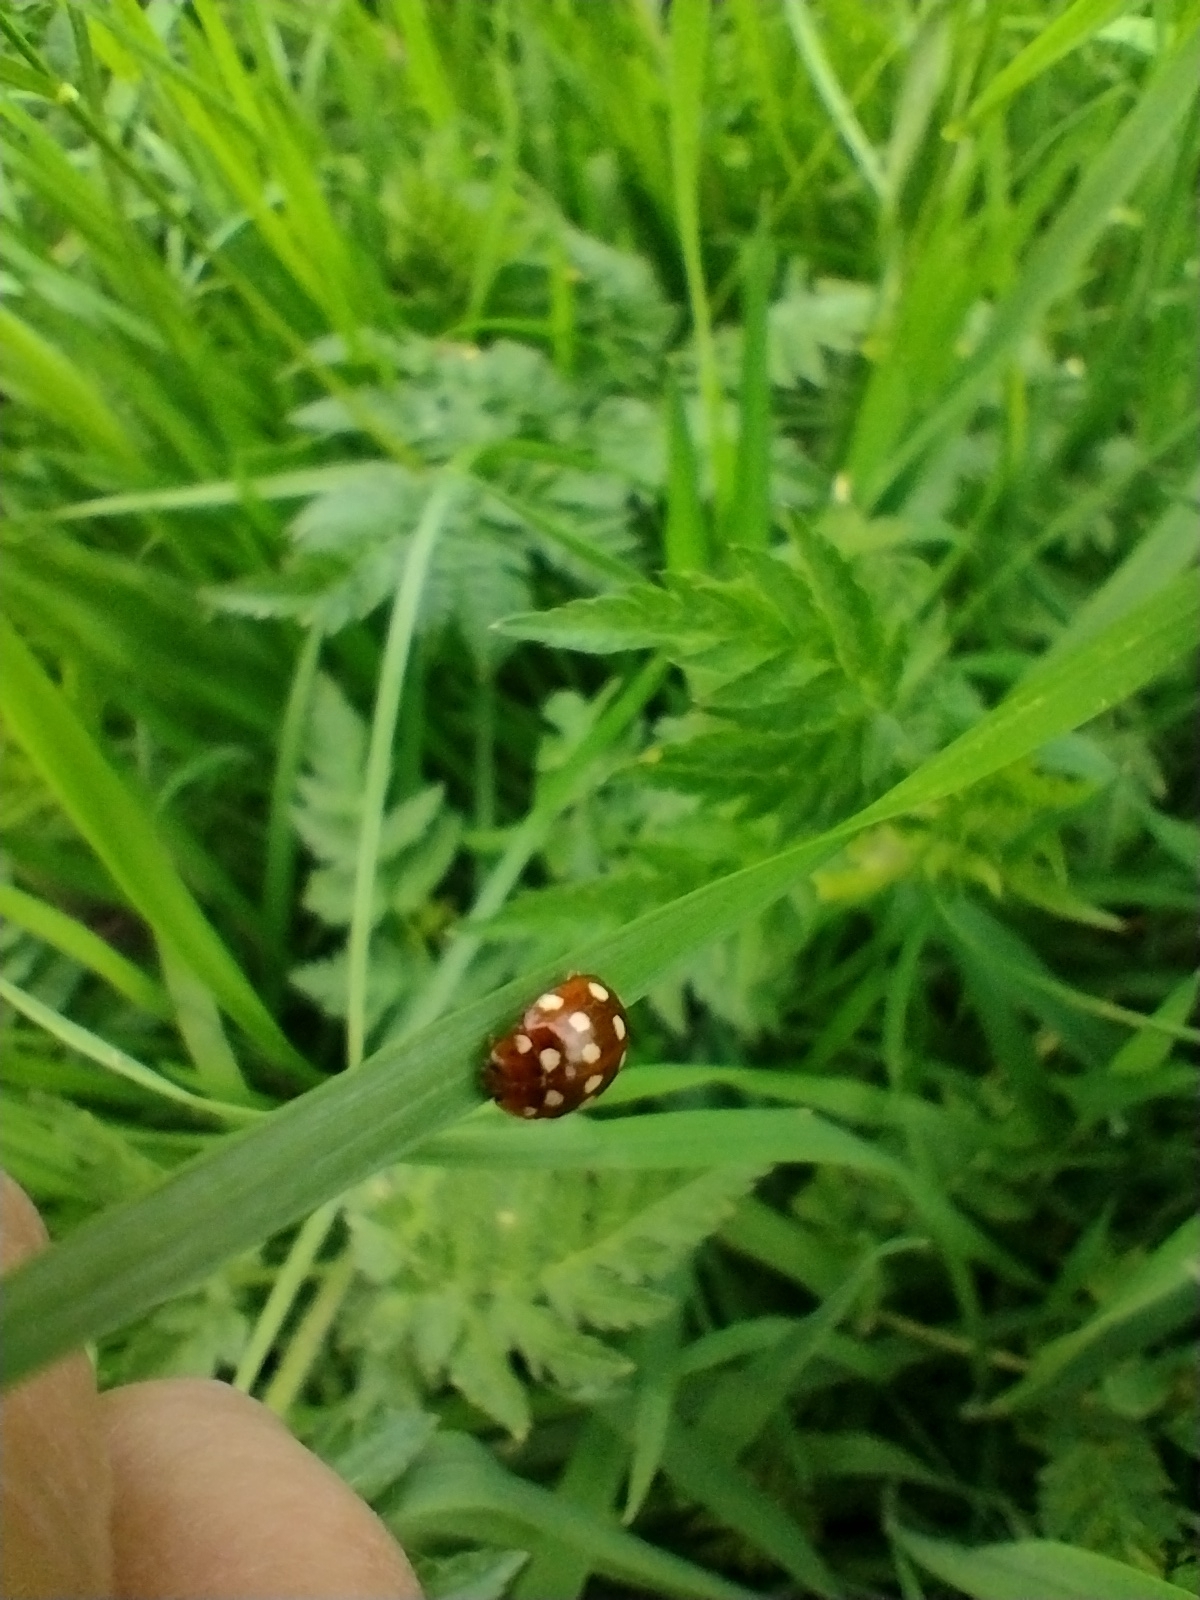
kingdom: Animalia
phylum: Arthropoda
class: Insecta
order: Coleoptera
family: Coccinellidae
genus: Calvia
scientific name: Calvia quatuordecimguttata
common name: Cream-spot ladybird
